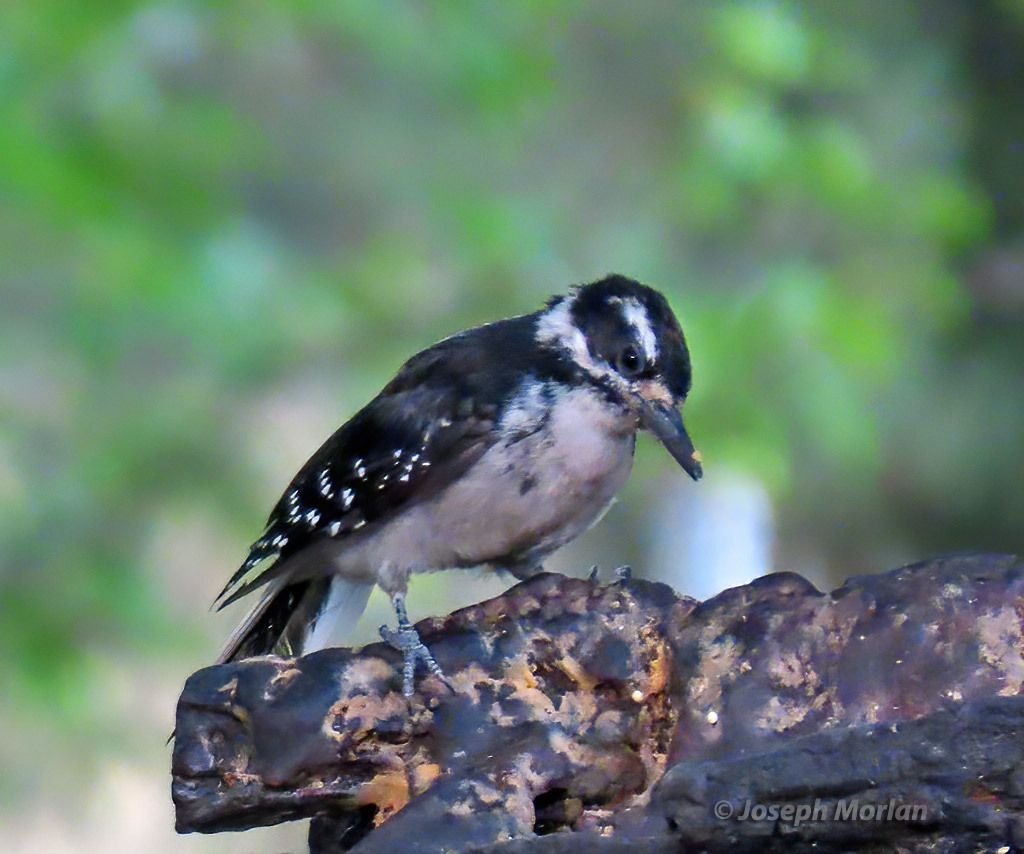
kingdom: Animalia
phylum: Chordata
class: Aves
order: Piciformes
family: Picidae
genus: Leuconotopicus
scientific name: Leuconotopicus villosus
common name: Hairy woodpecker
